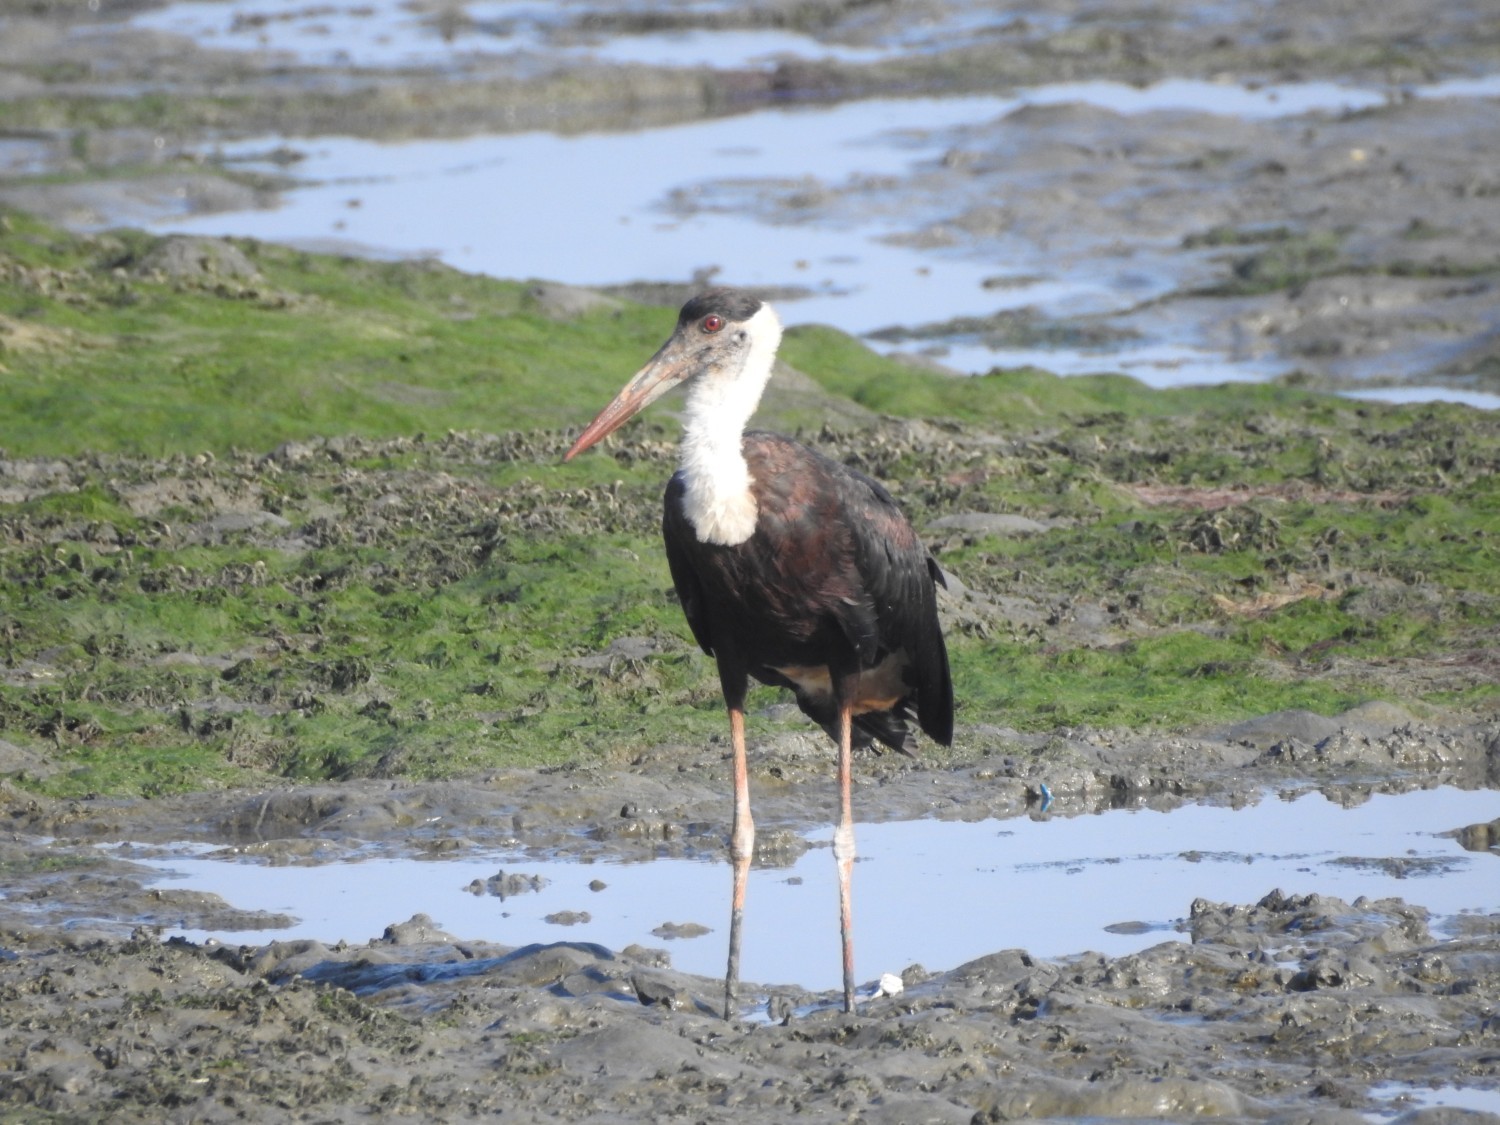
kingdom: Animalia
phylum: Chordata
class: Aves
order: Ciconiiformes
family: Ciconiidae
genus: Ciconia
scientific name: Ciconia episcopus
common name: Woolly-necked stork
